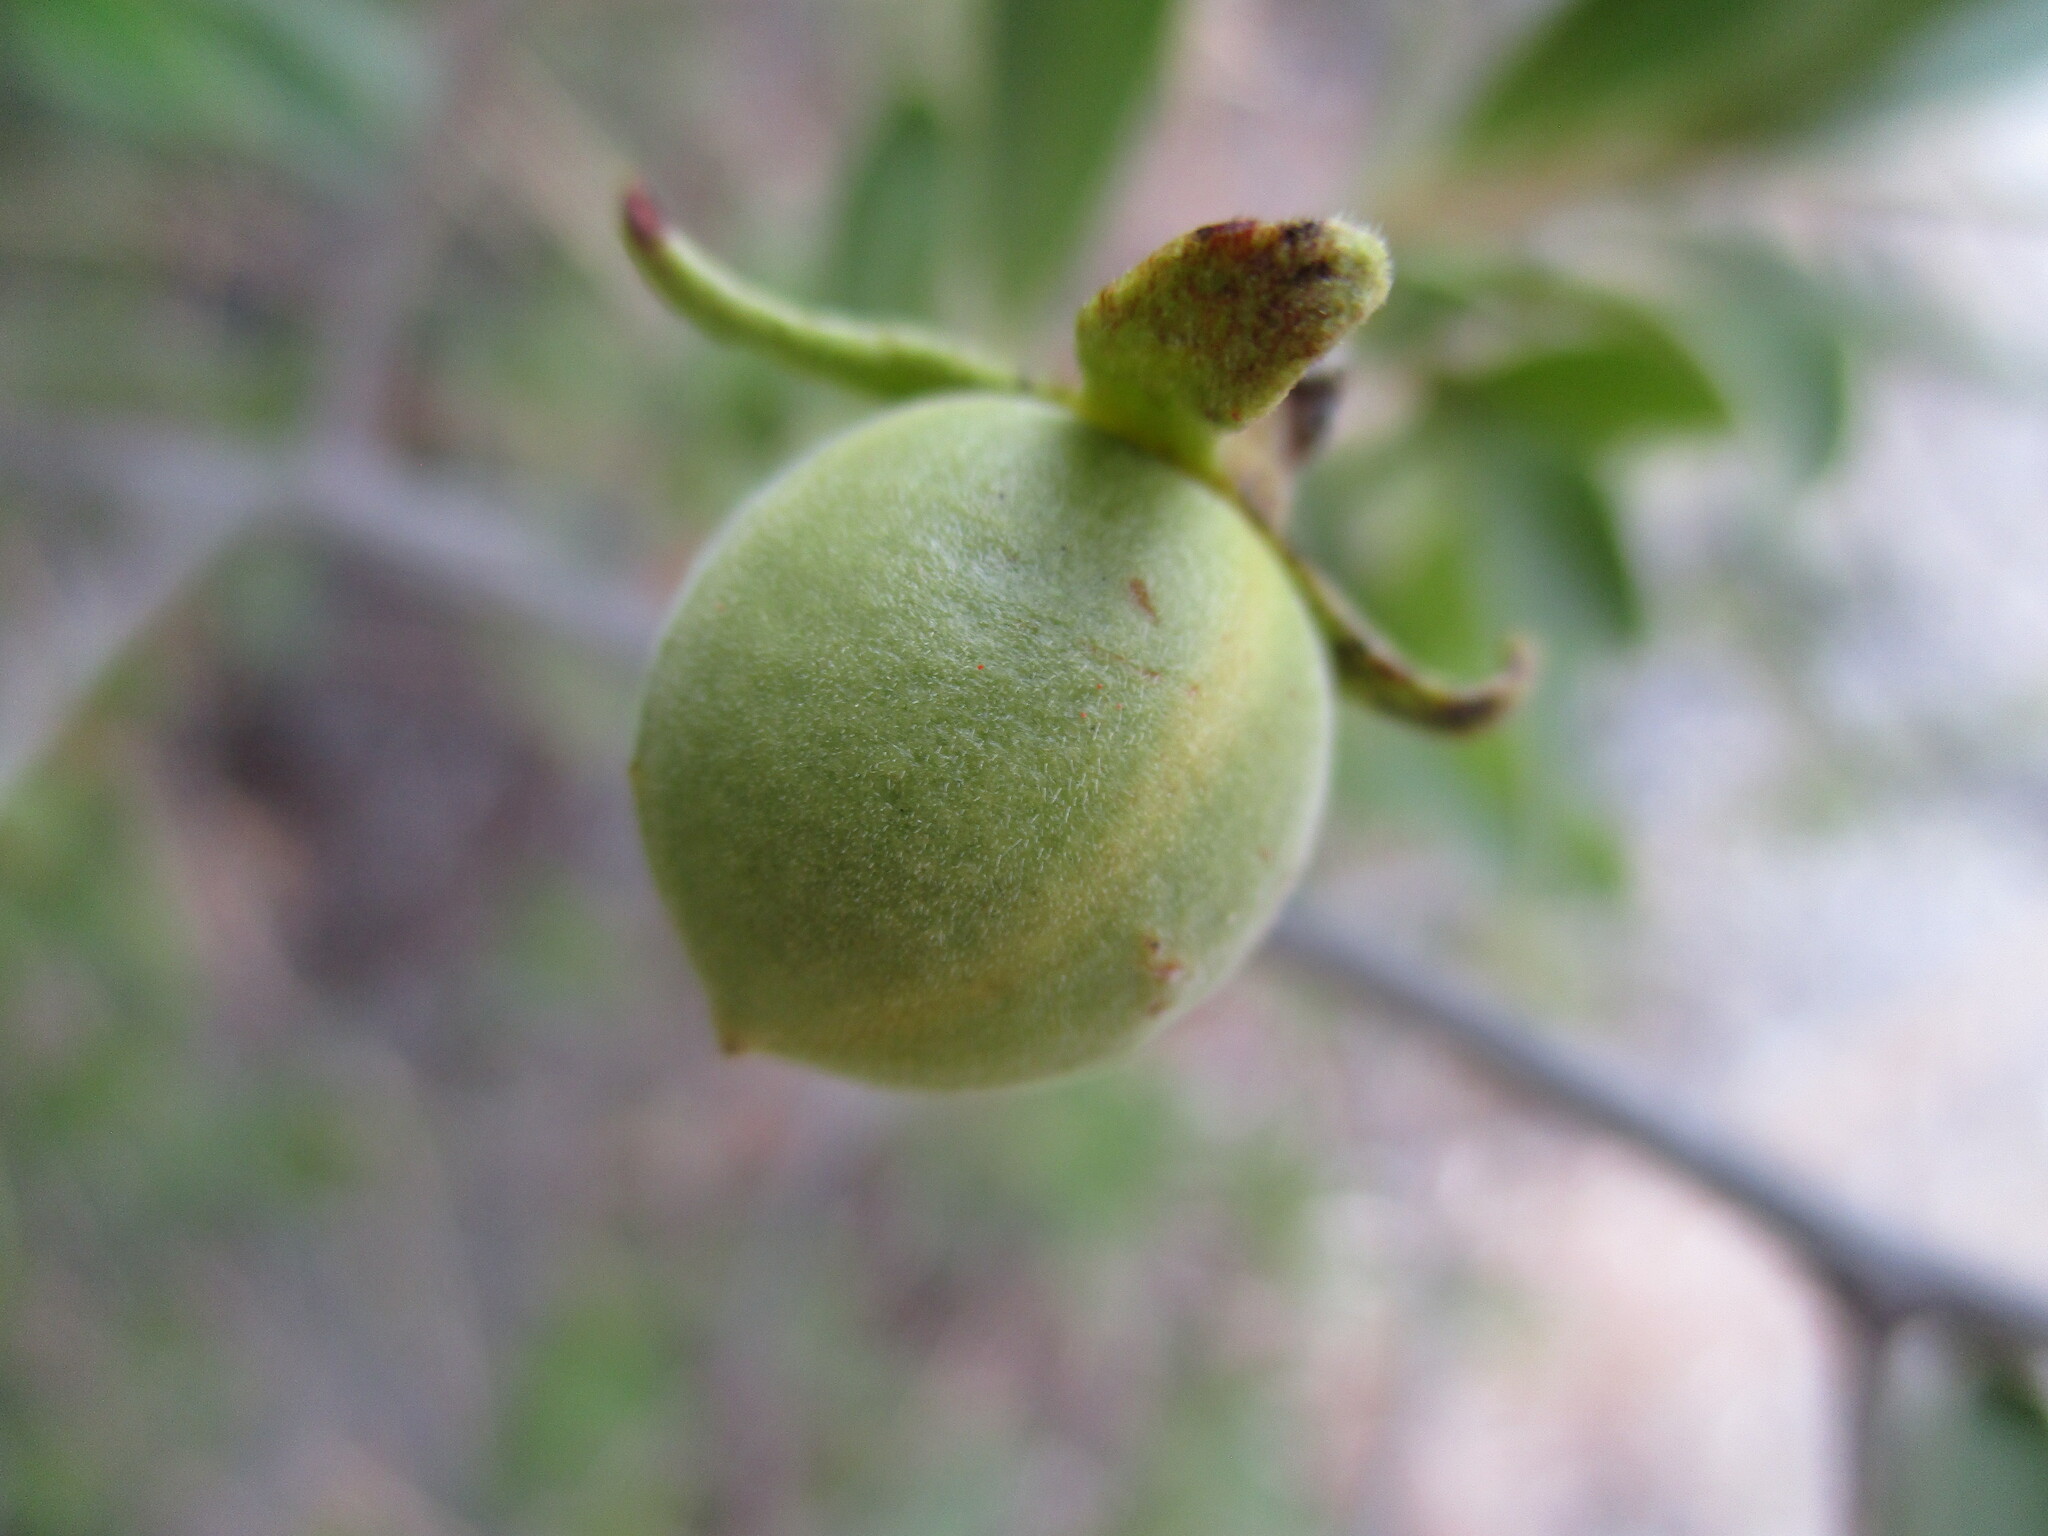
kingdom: Plantae
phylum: Tracheophyta
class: Magnoliopsida
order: Ericales
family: Ebenaceae
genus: Diospyros
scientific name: Diospyros lycioides
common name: Red star apple
